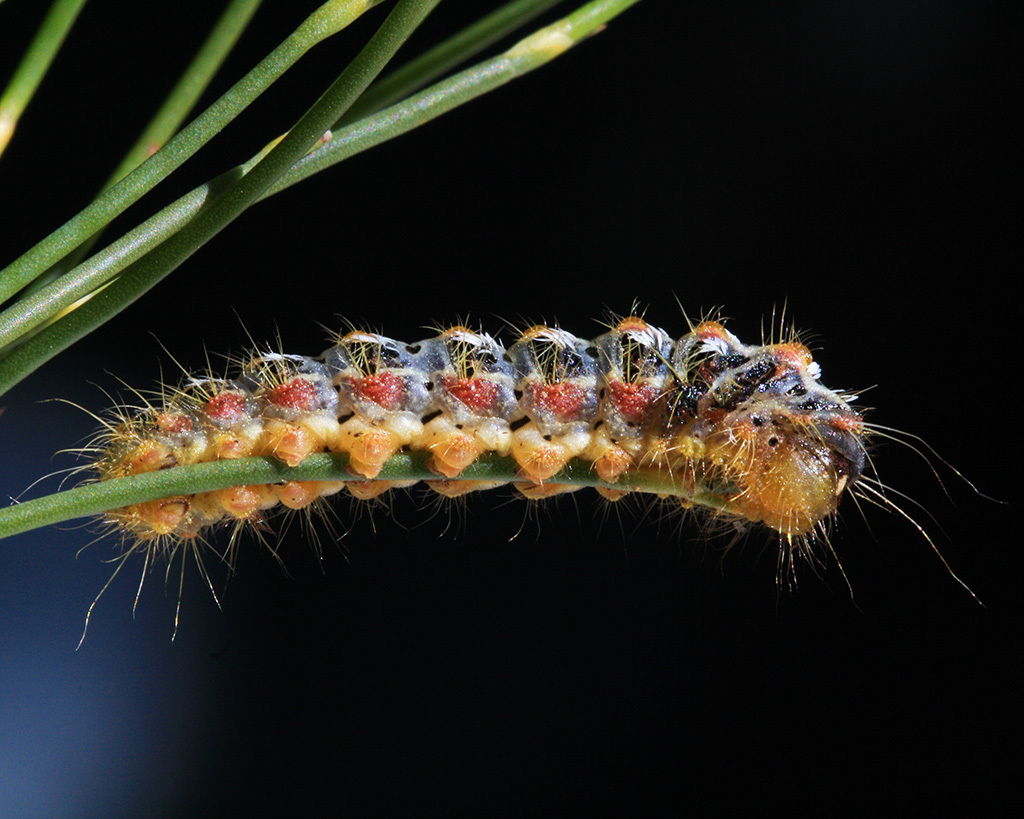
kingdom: Animalia
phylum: Arthropoda
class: Insecta
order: Lepidoptera
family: Somabrachyidae
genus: Psycharium
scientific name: Psycharium pellucens
